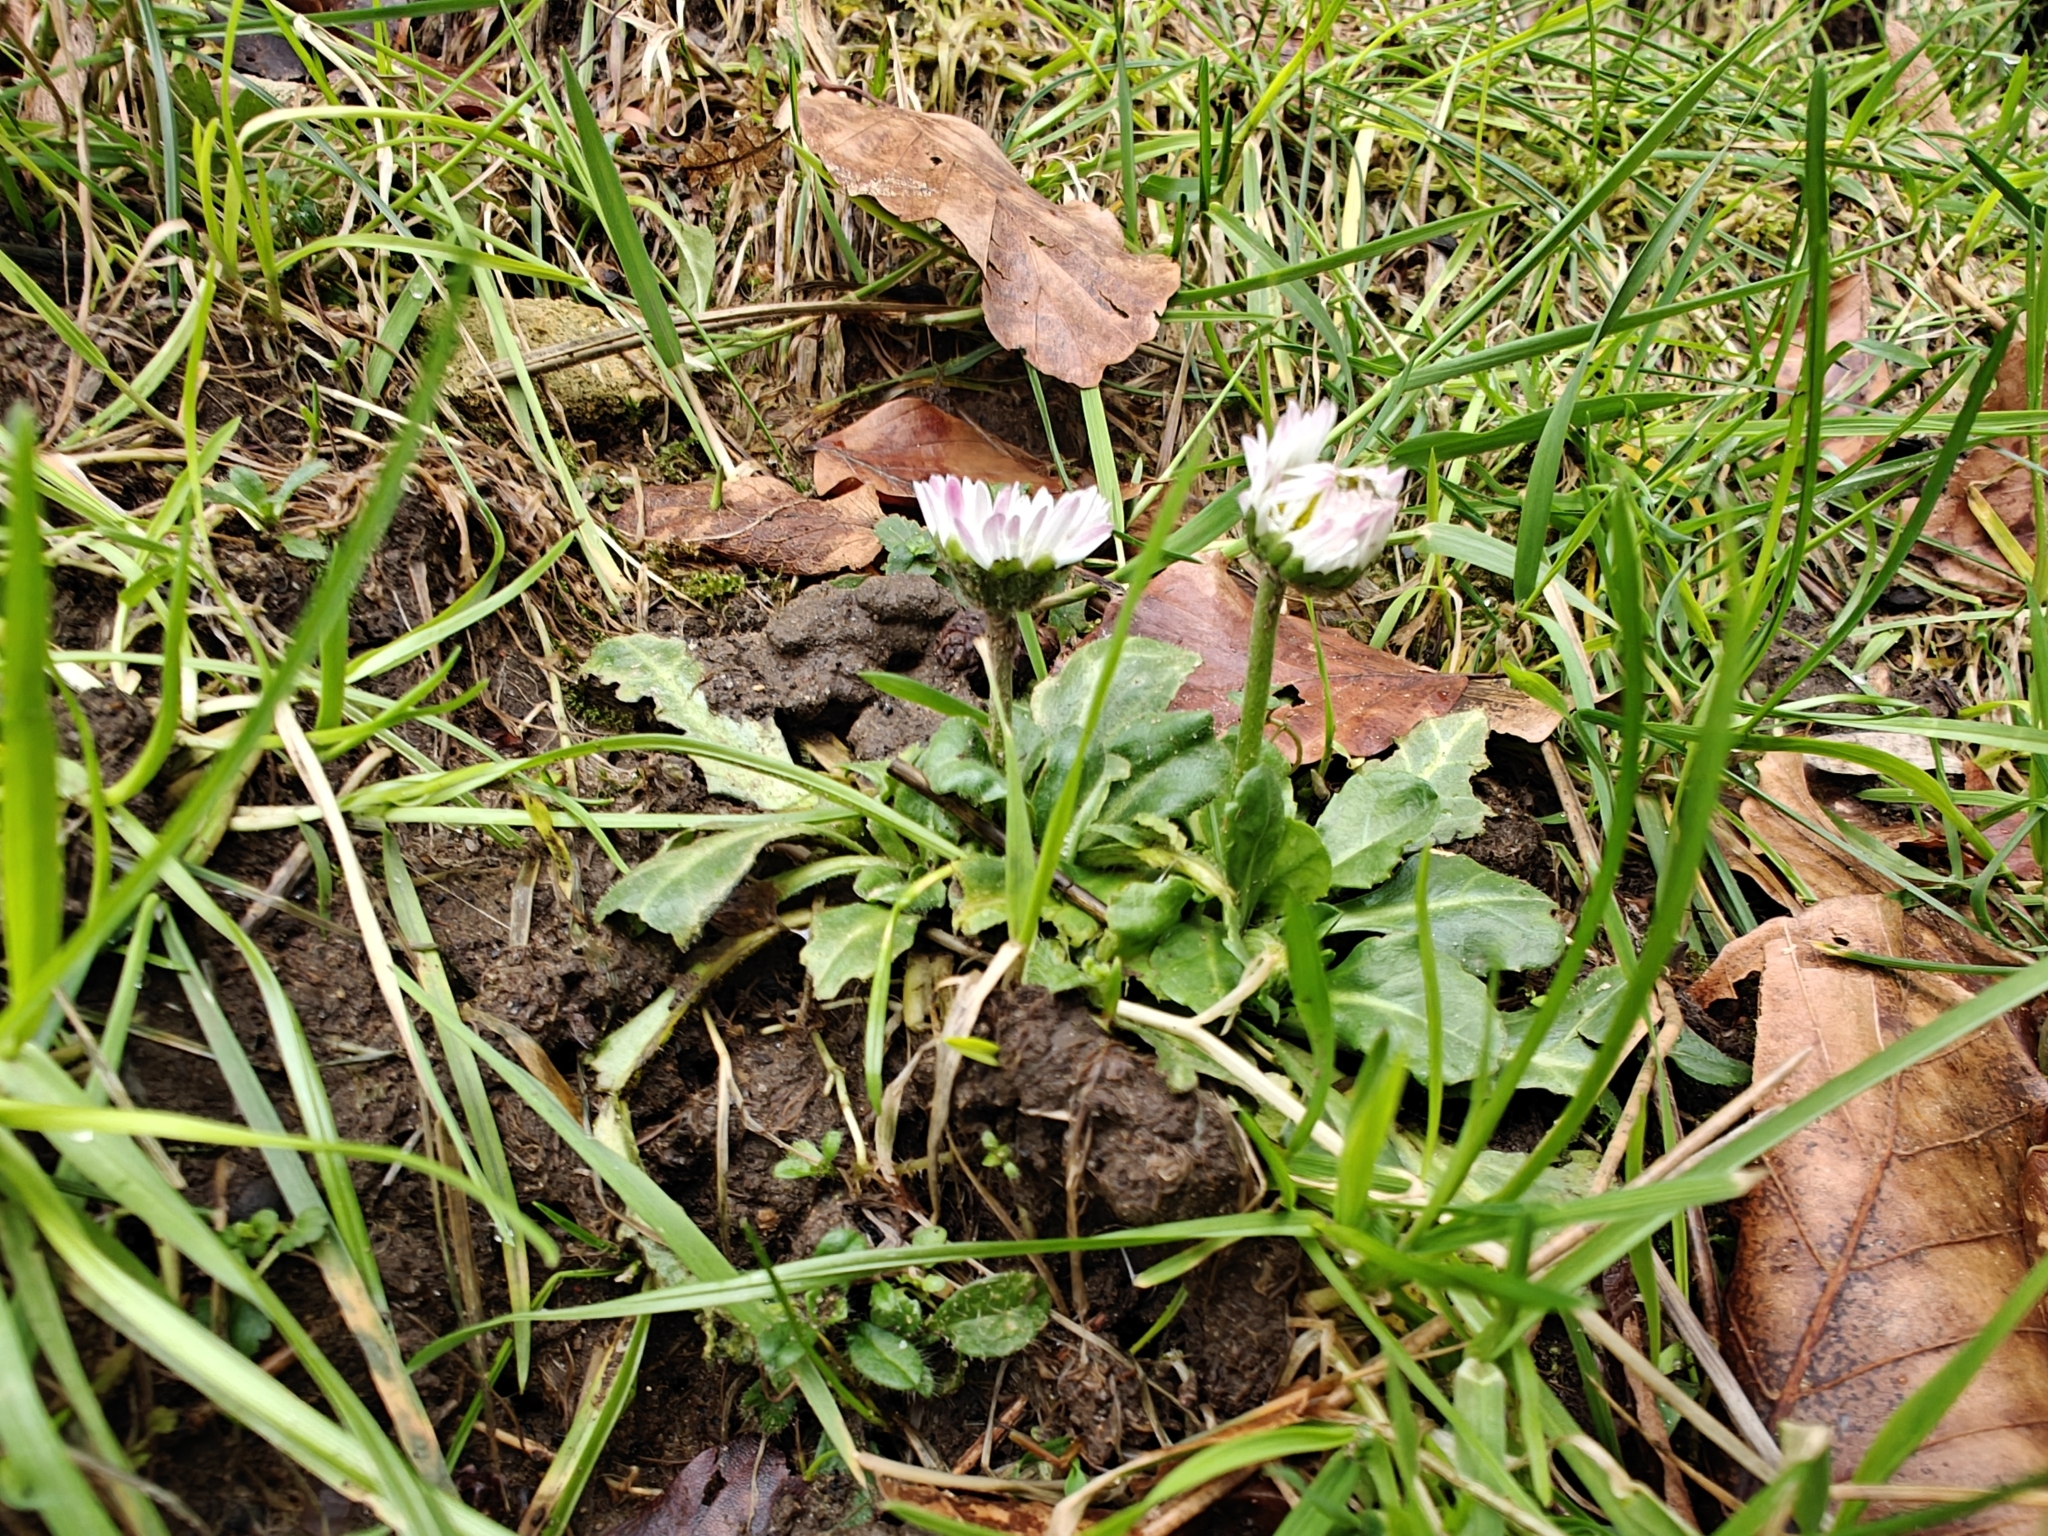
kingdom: Plantae
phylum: Tracheophyta
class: Magnoliopsida
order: Asterales
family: Asteraceae
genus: Bellis
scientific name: Bellis perennis
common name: Lawndaisy
